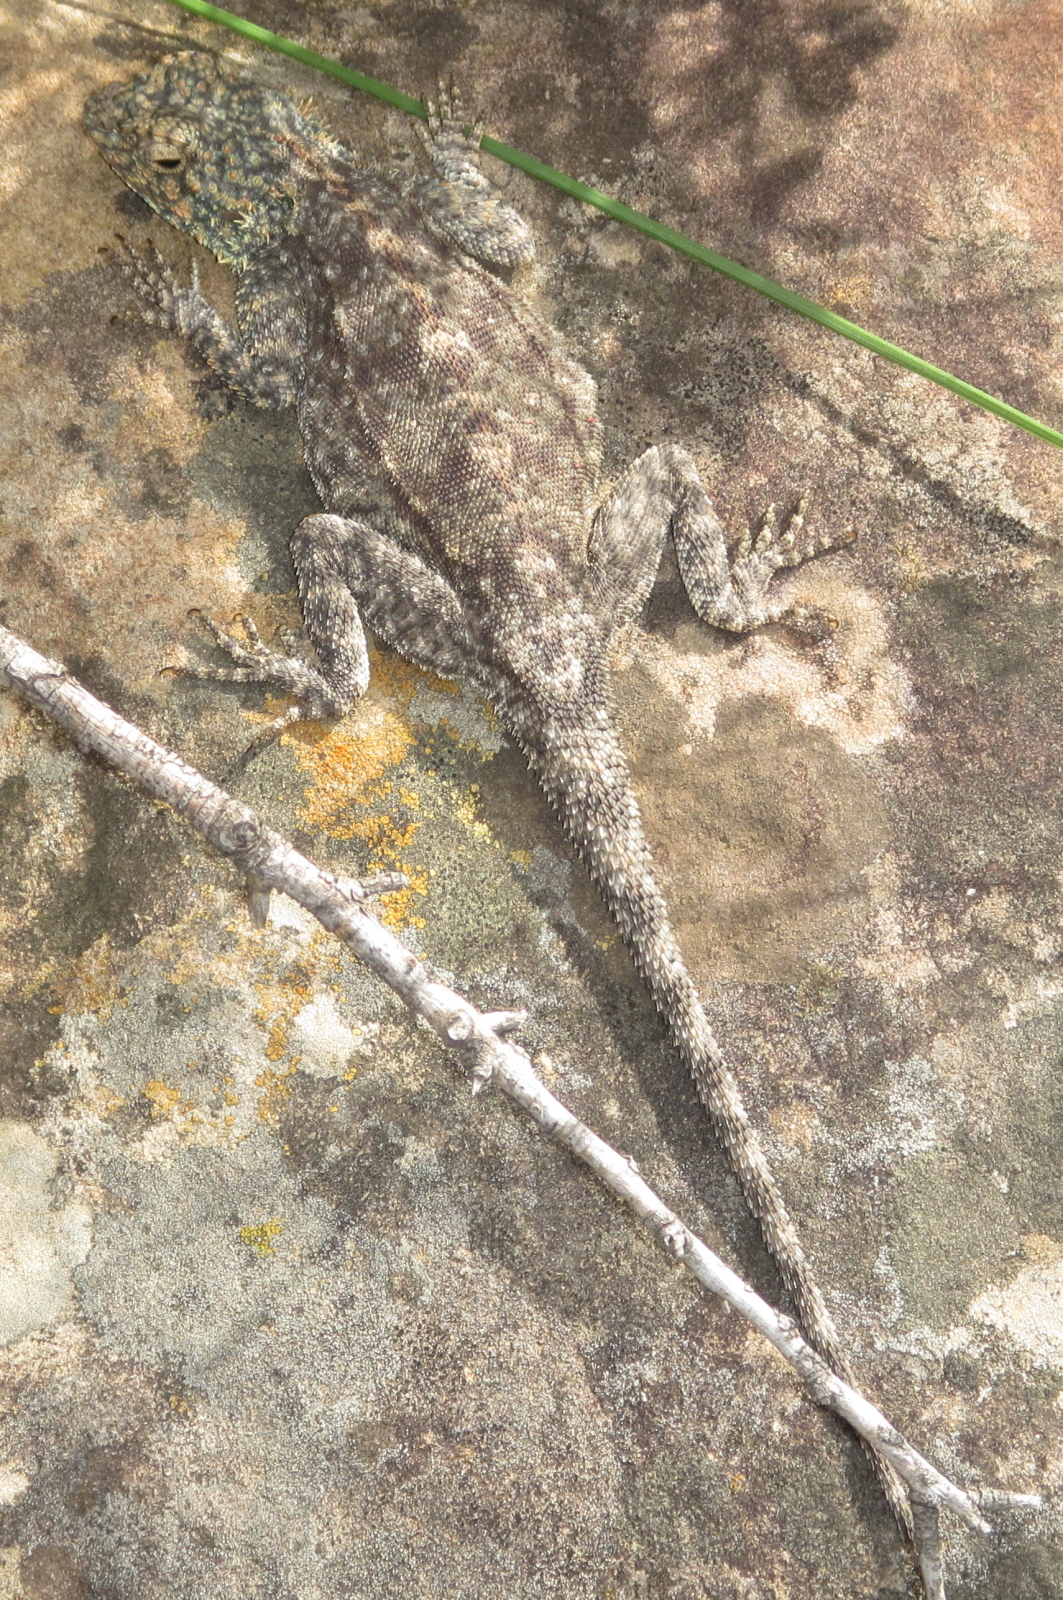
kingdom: Animalia
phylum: Chordata
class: Squamata
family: Agamidae
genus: Agama
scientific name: Agama atra
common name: Southern african rock agama
